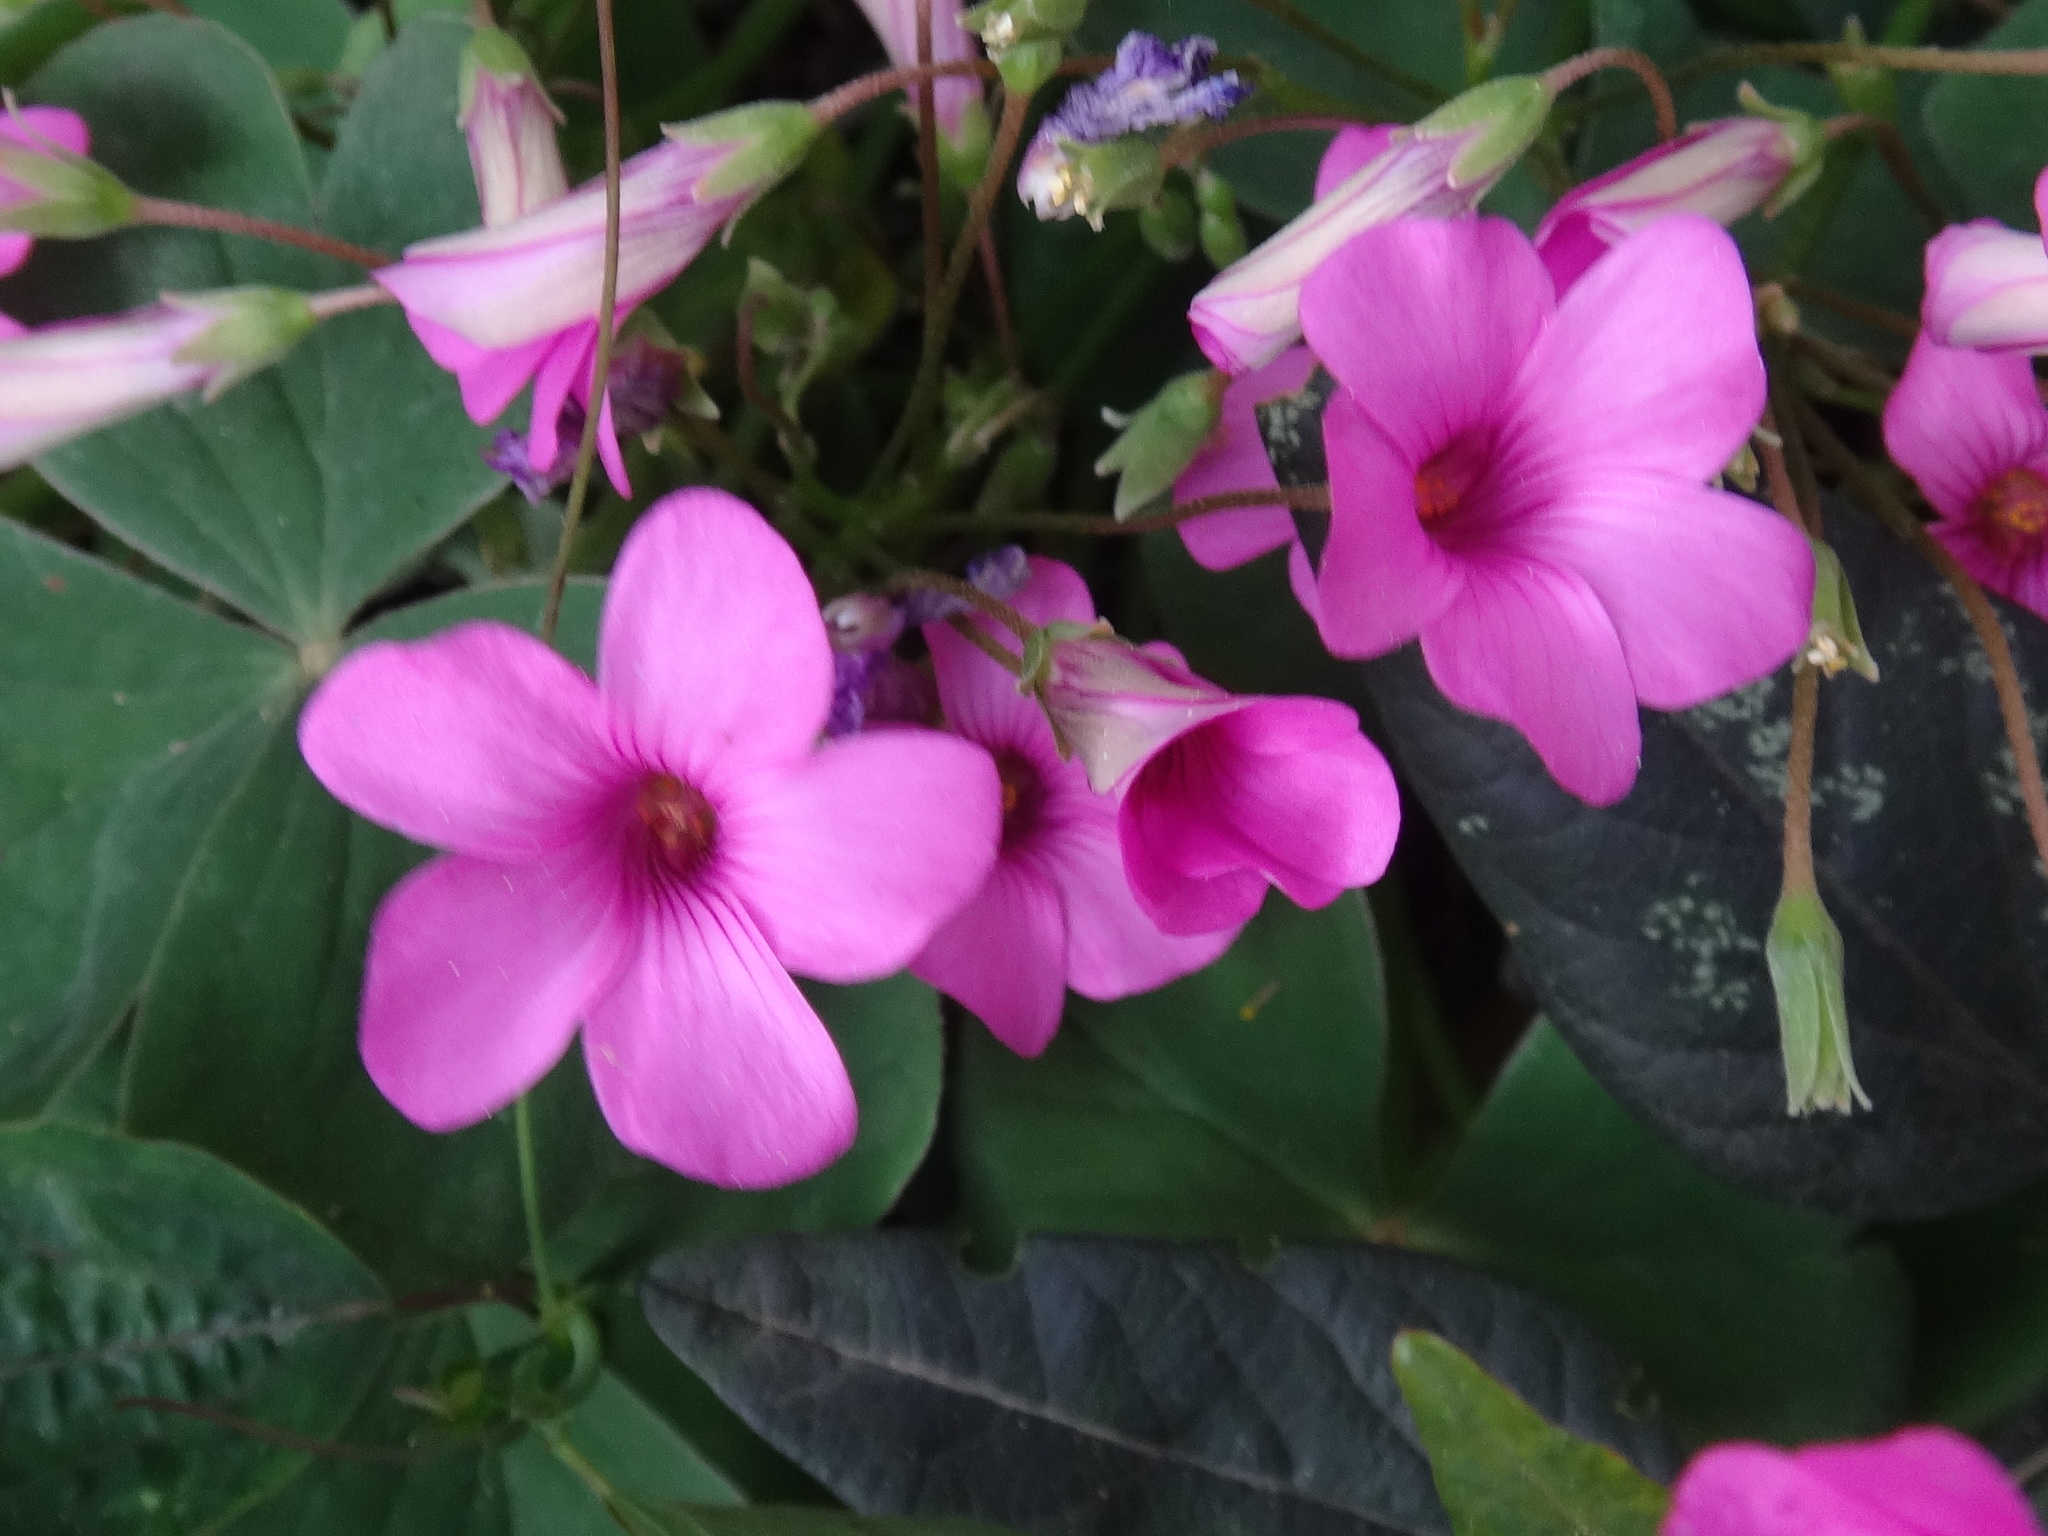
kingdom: Plantae
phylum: Tracheophyta
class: Magnoliopsida
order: Oxalidales
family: Oxalidaceae
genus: Oxalis
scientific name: Oxalis articulata
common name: Pink-sorrel
